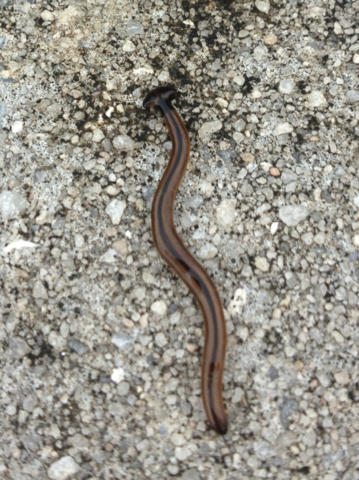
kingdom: Animalia
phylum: Platyhelminthes
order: Tricladida
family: Geoplanidae
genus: Bipalium
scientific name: Bipalium vagum
